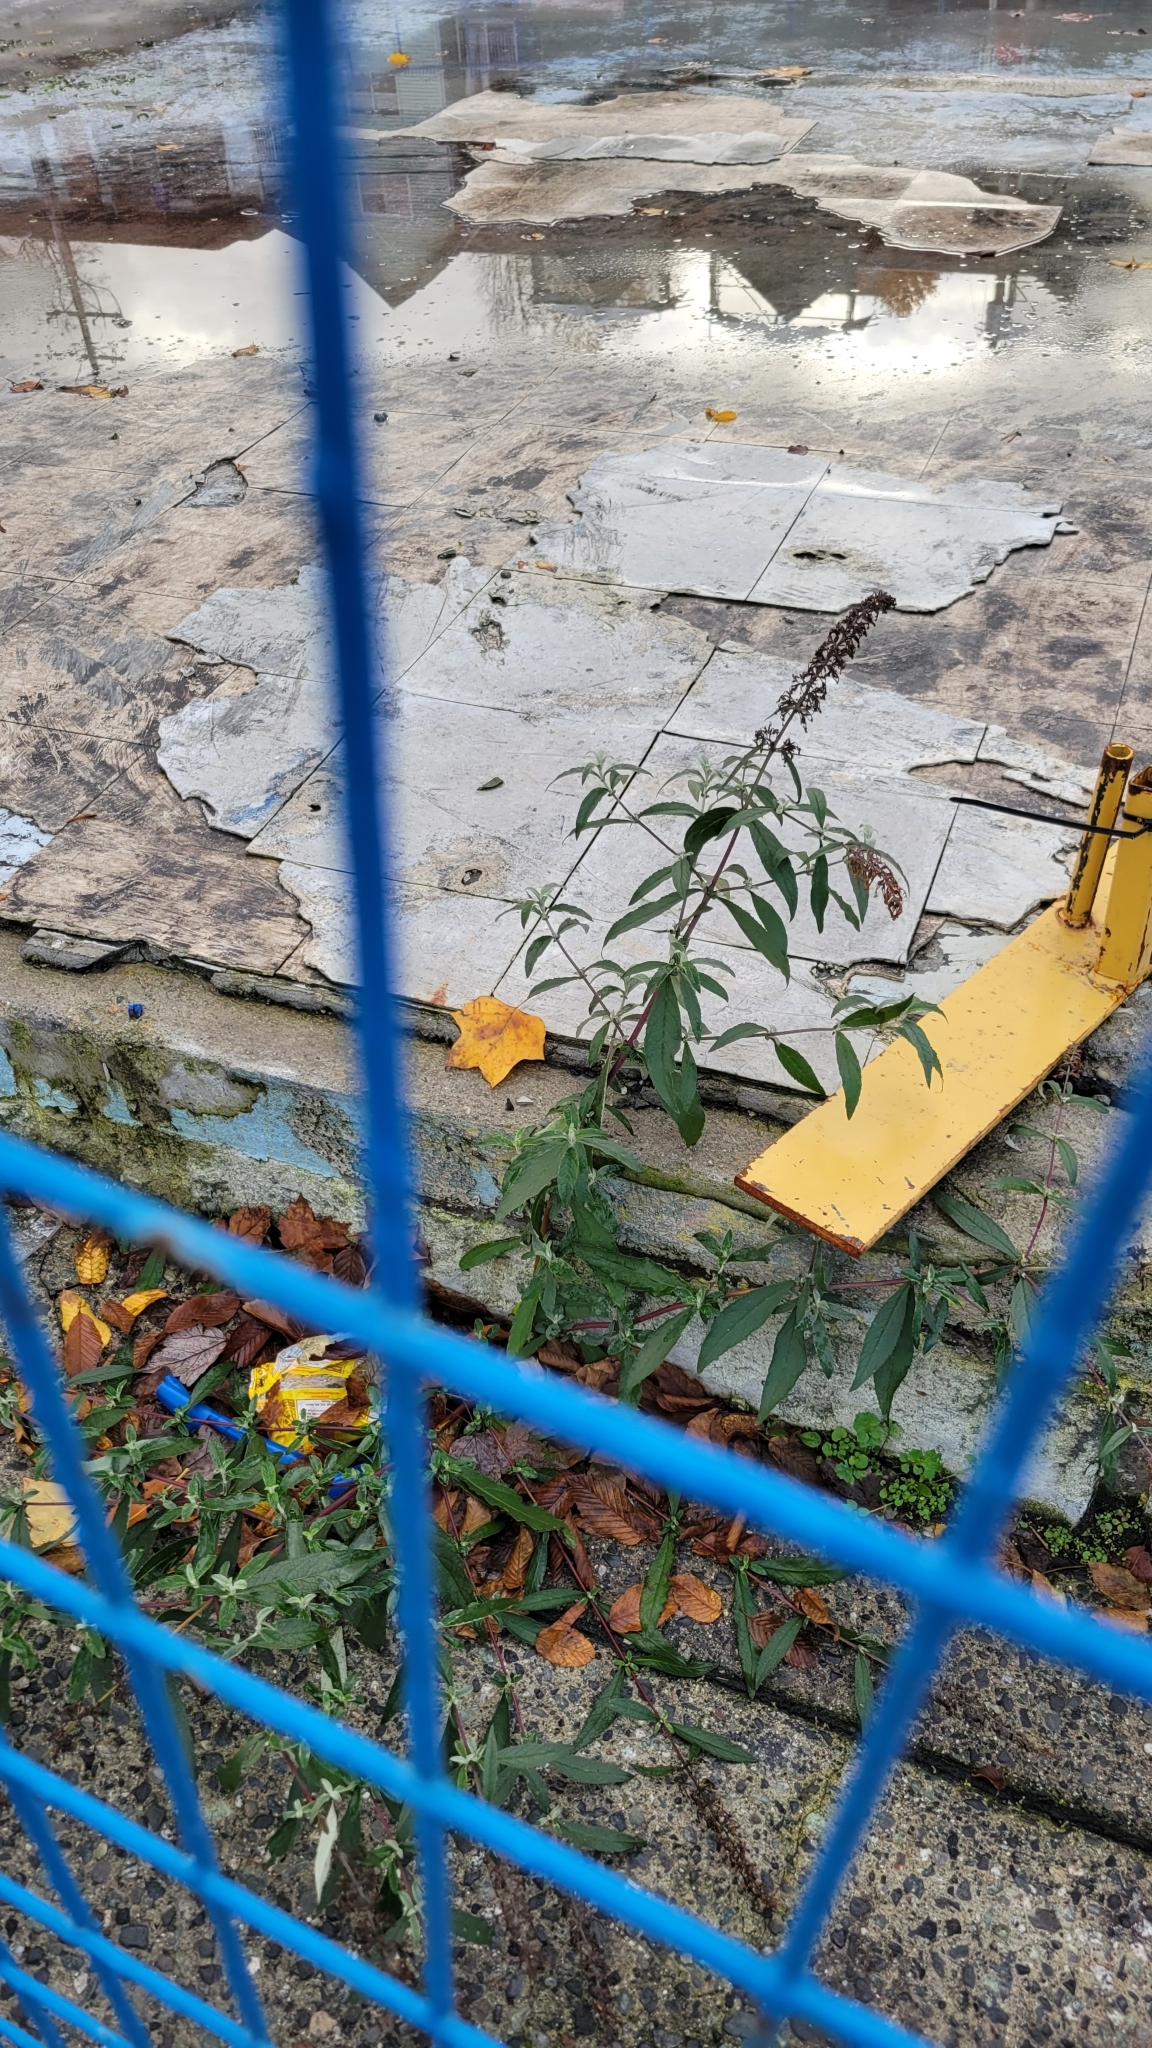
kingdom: Plantae
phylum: Tracheophyta
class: Magnoliopsida
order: Lamiales
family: Scrophulariaceae
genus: Buddleja
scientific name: Buddleja davidii
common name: Butterfly-bush
